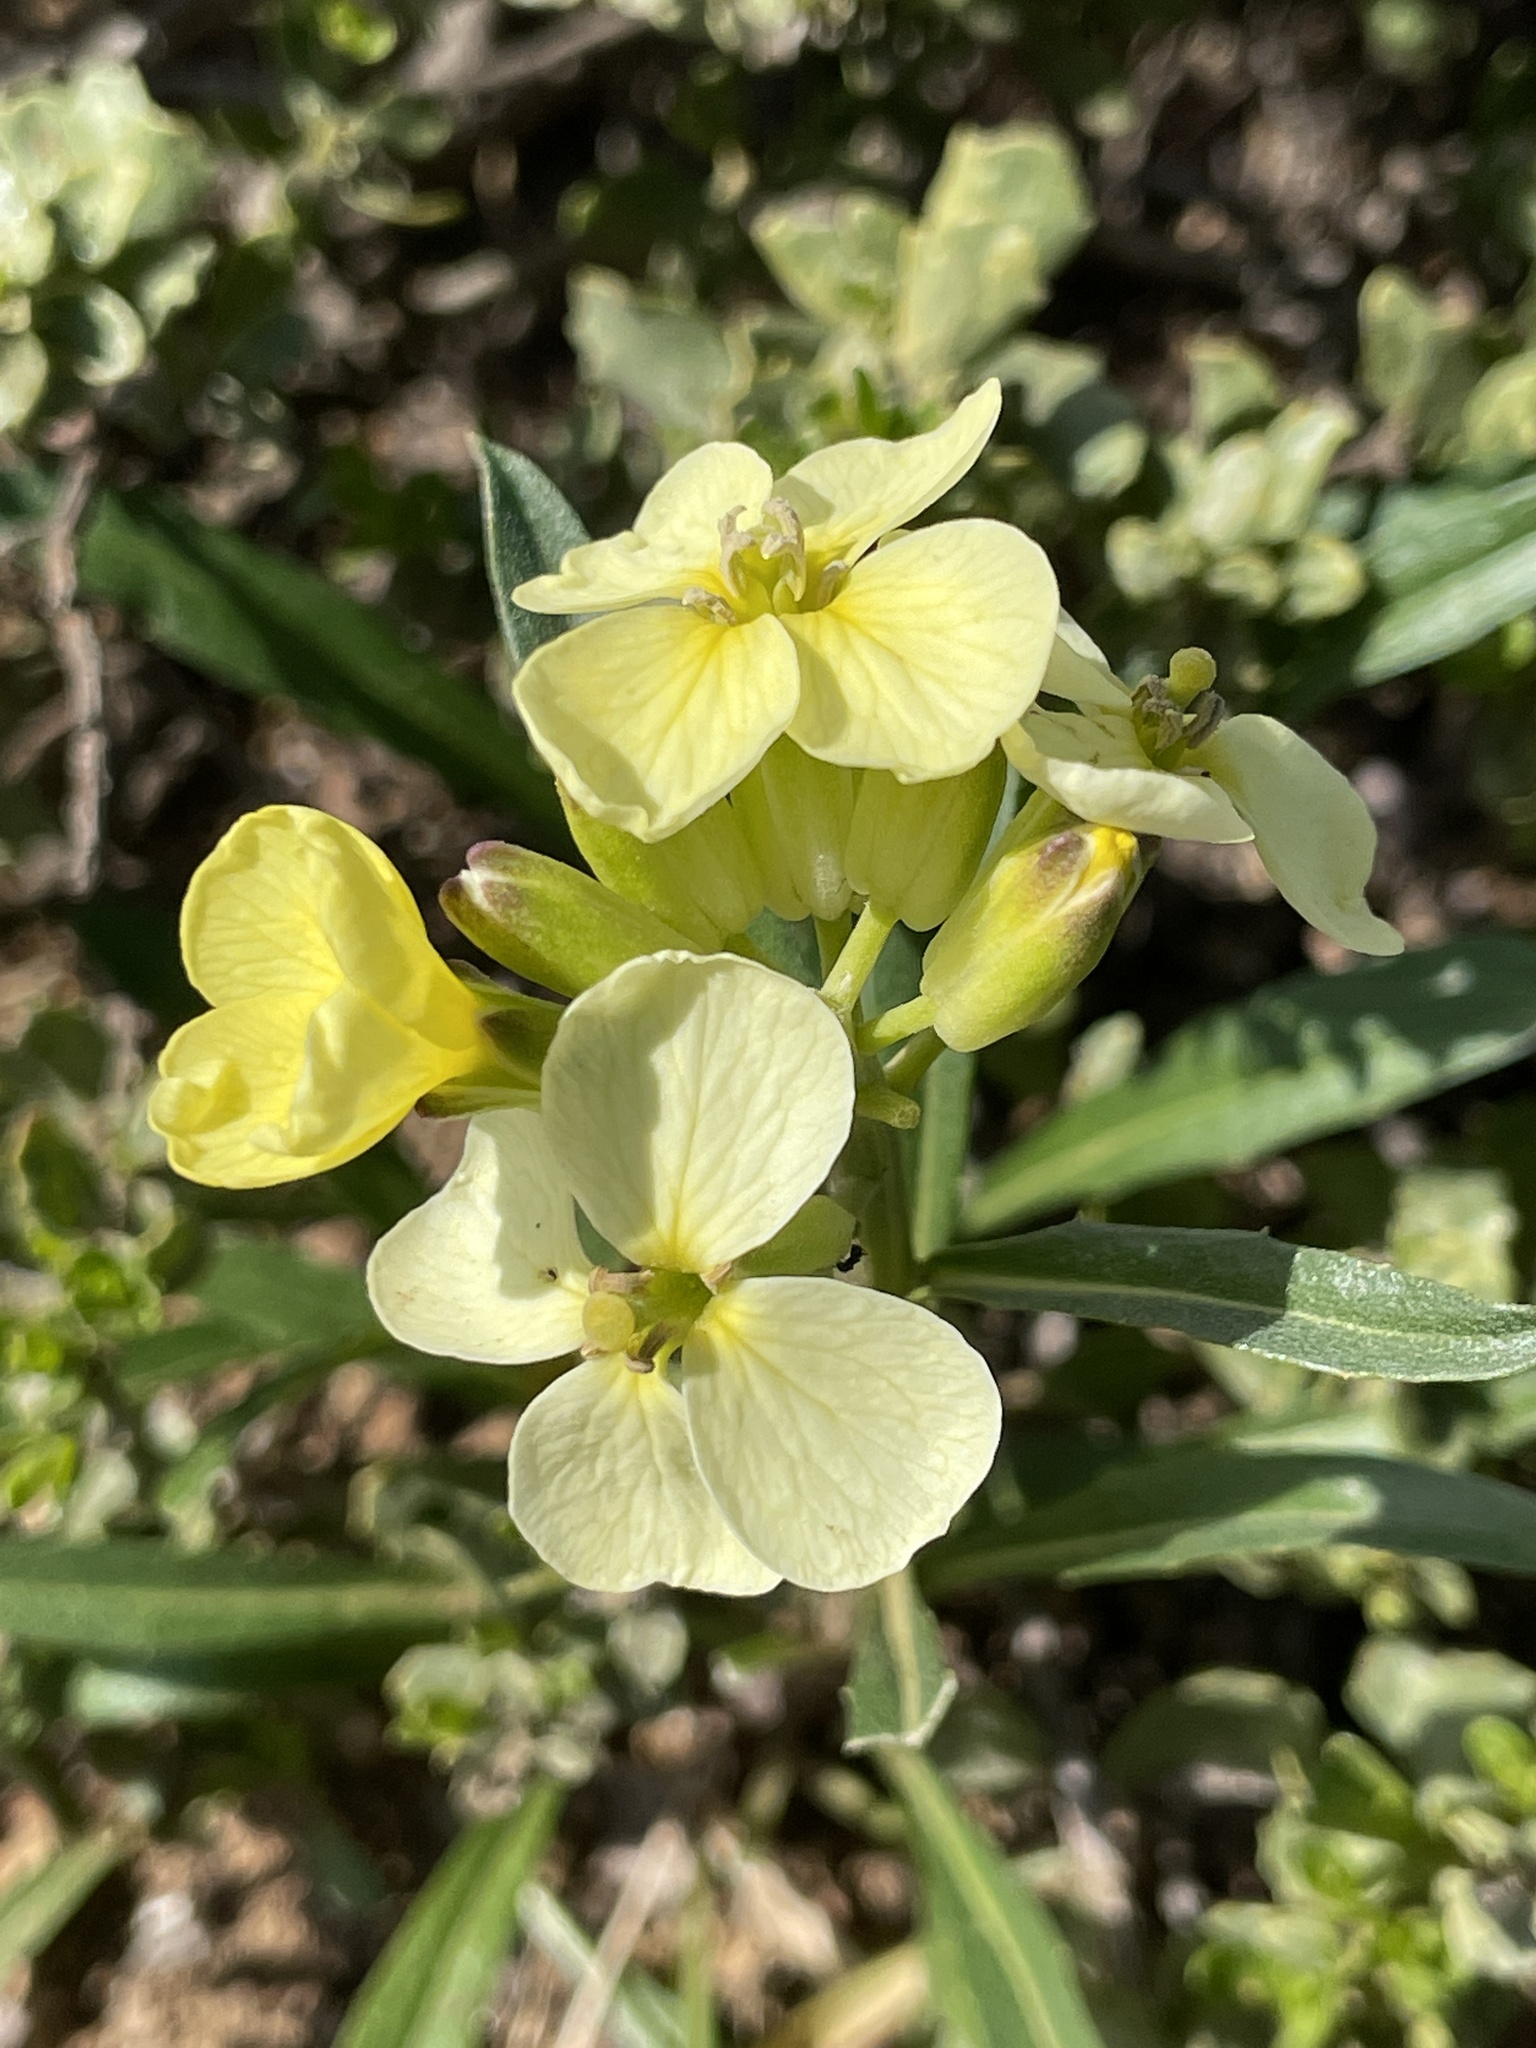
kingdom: Plantae
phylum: Tracheophyta
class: Magnoliopsida
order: Brassicales
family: Brassicaceae
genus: Erysimum
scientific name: Erysimum franciscanum
